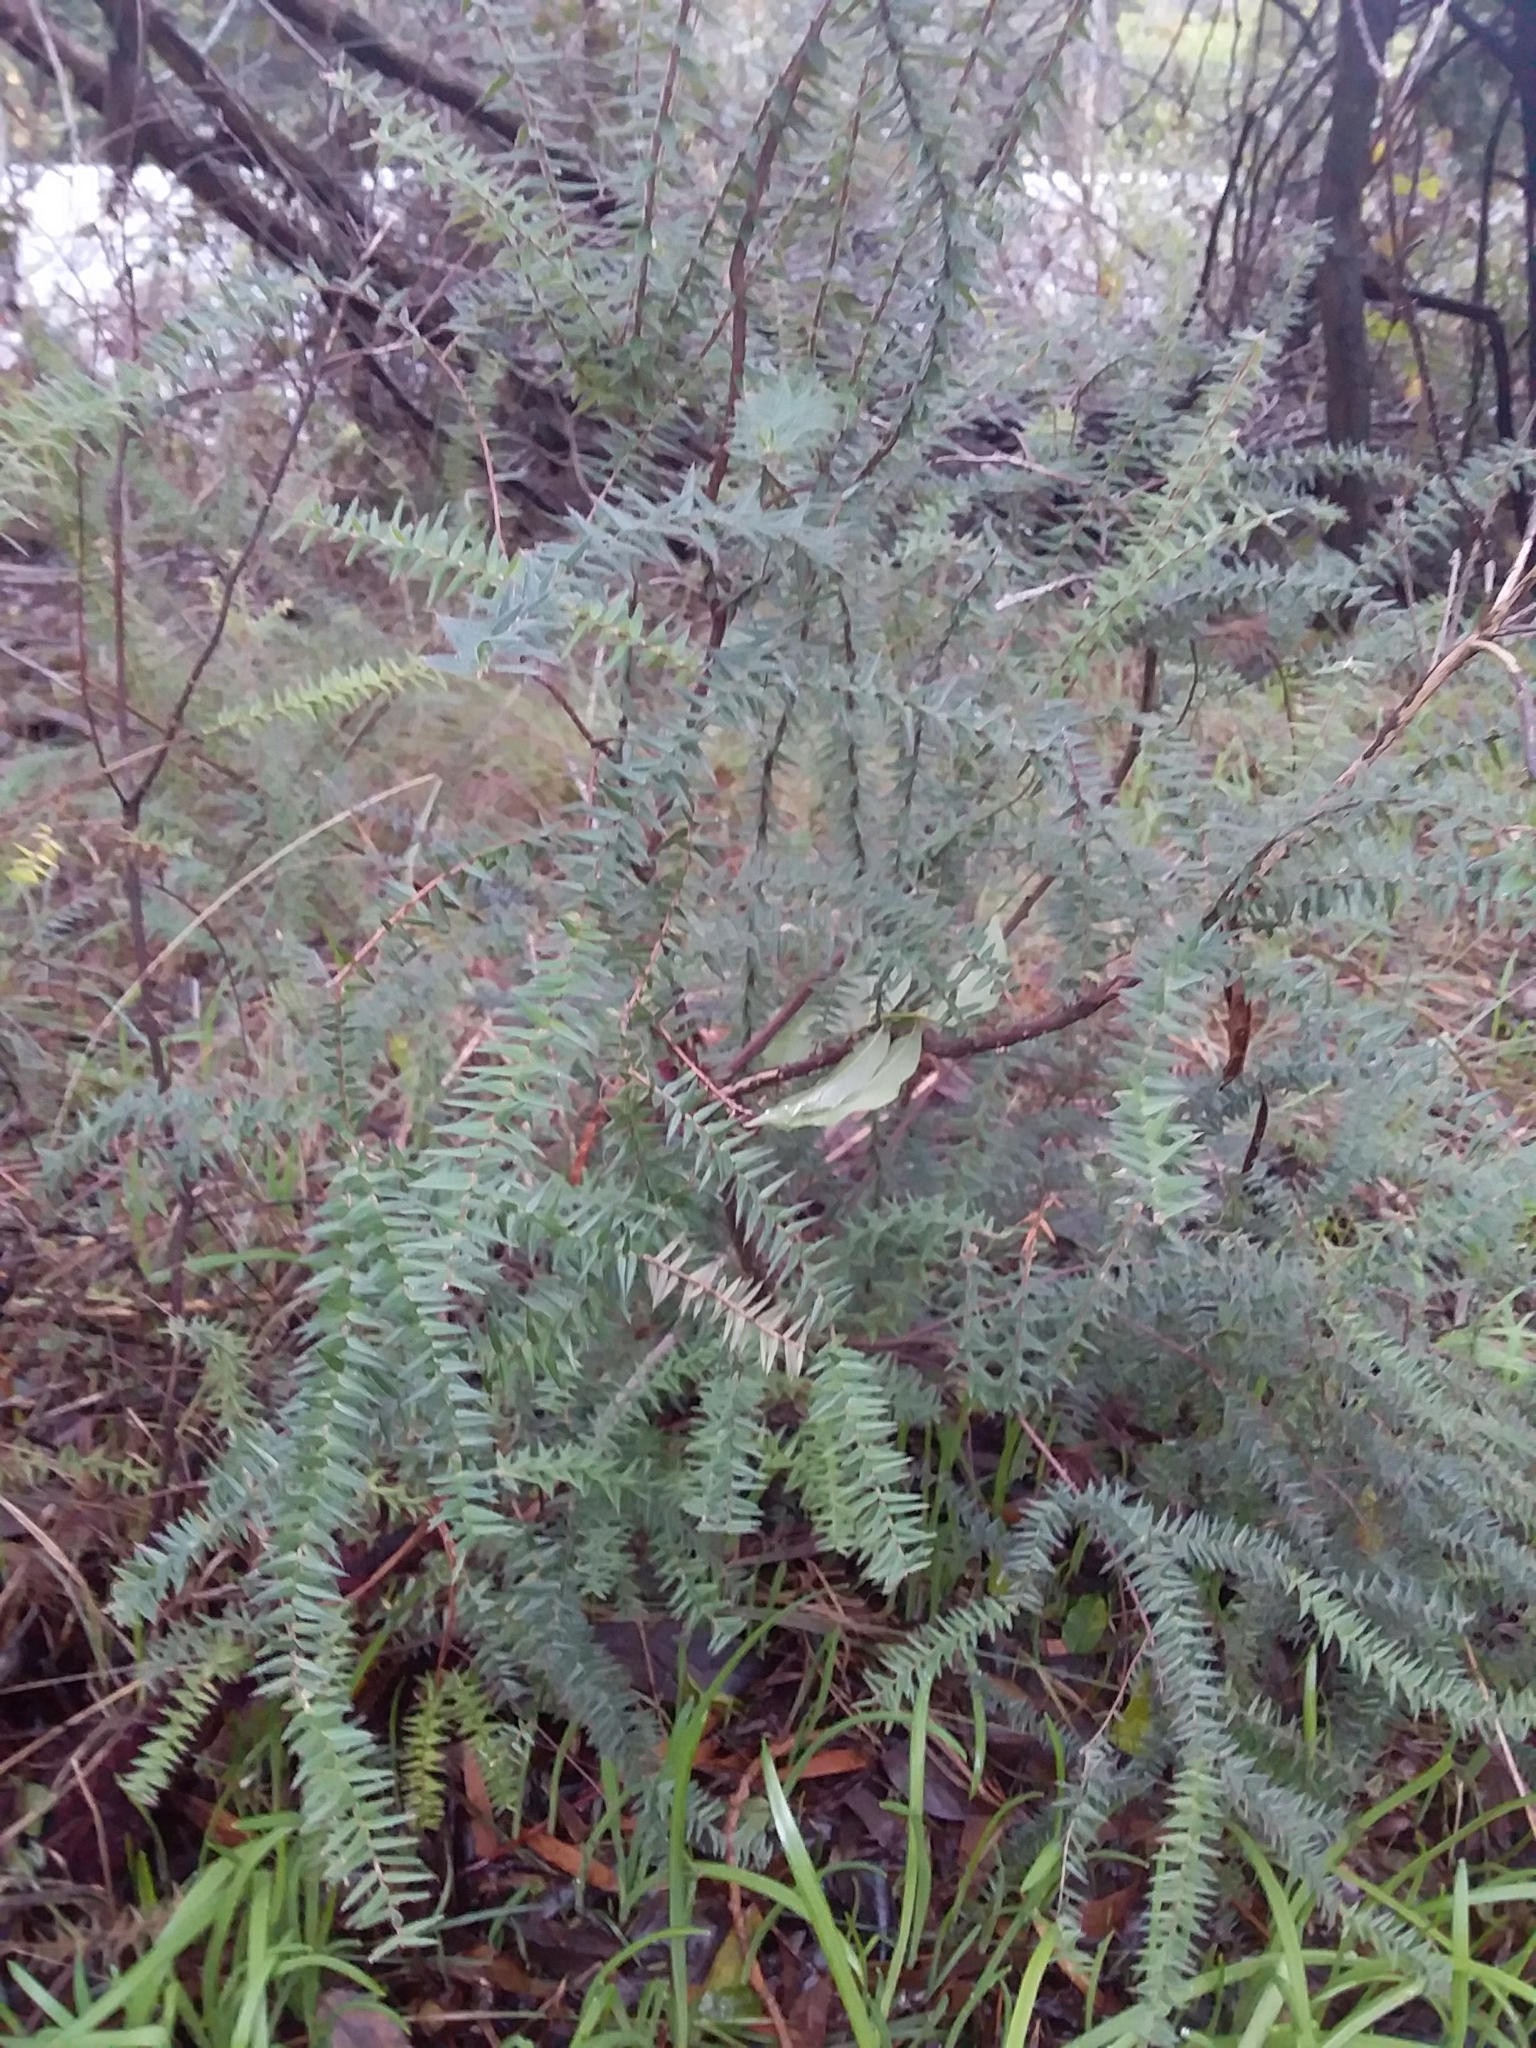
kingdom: Plantae
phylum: Tracheophyta
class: Magnoliopsida
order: Ericales
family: Ericaceae
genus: Acrotriche
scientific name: Acrotriche fasciculiflora
